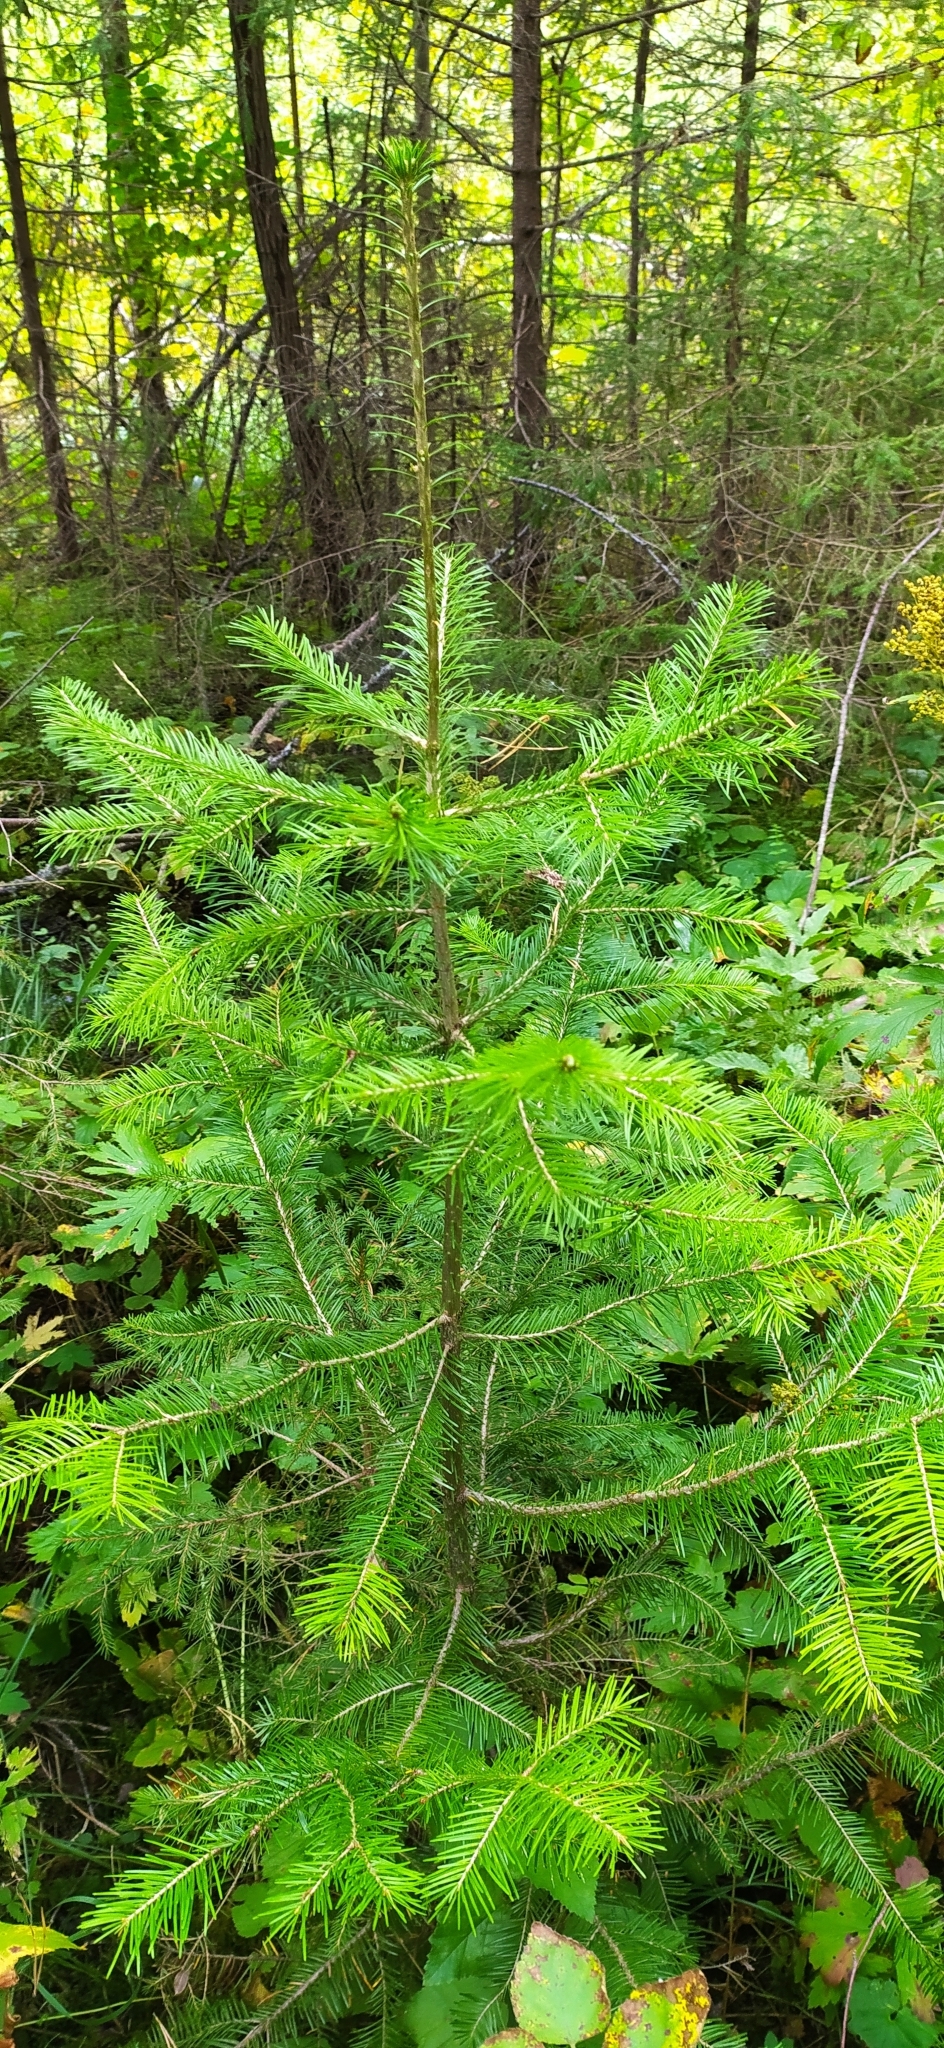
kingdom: Plantae
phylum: Tracheophyta
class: Pinopsida
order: Pinales
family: Pinaceae
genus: Abies
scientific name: Abies sibirica
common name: Siberian fir
